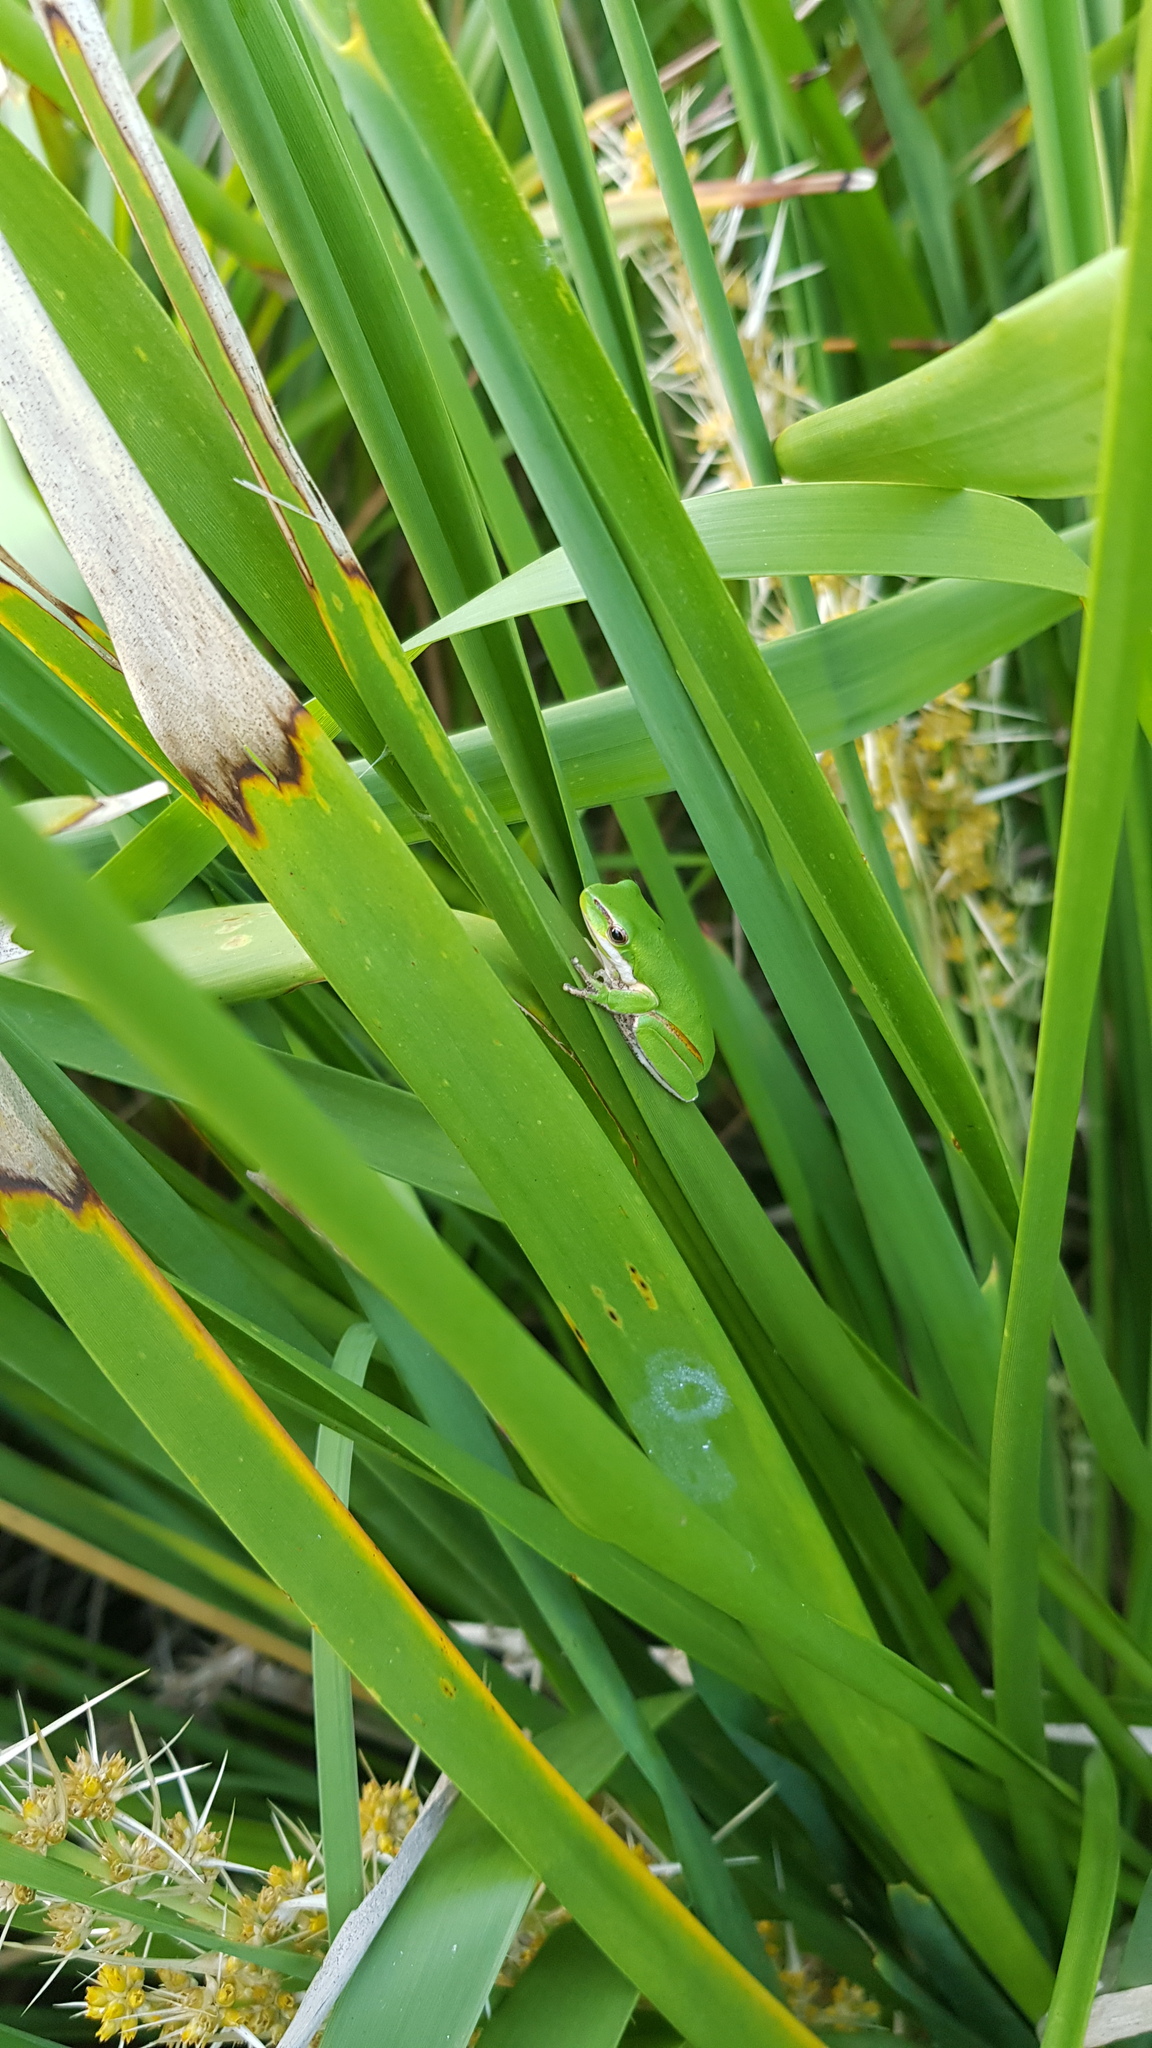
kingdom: Animalia
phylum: Chordata
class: Amphibia
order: Anura
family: Pelodryadidae
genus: Litoria
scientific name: Litoria fallax
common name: Eastern dwarf treefrog
